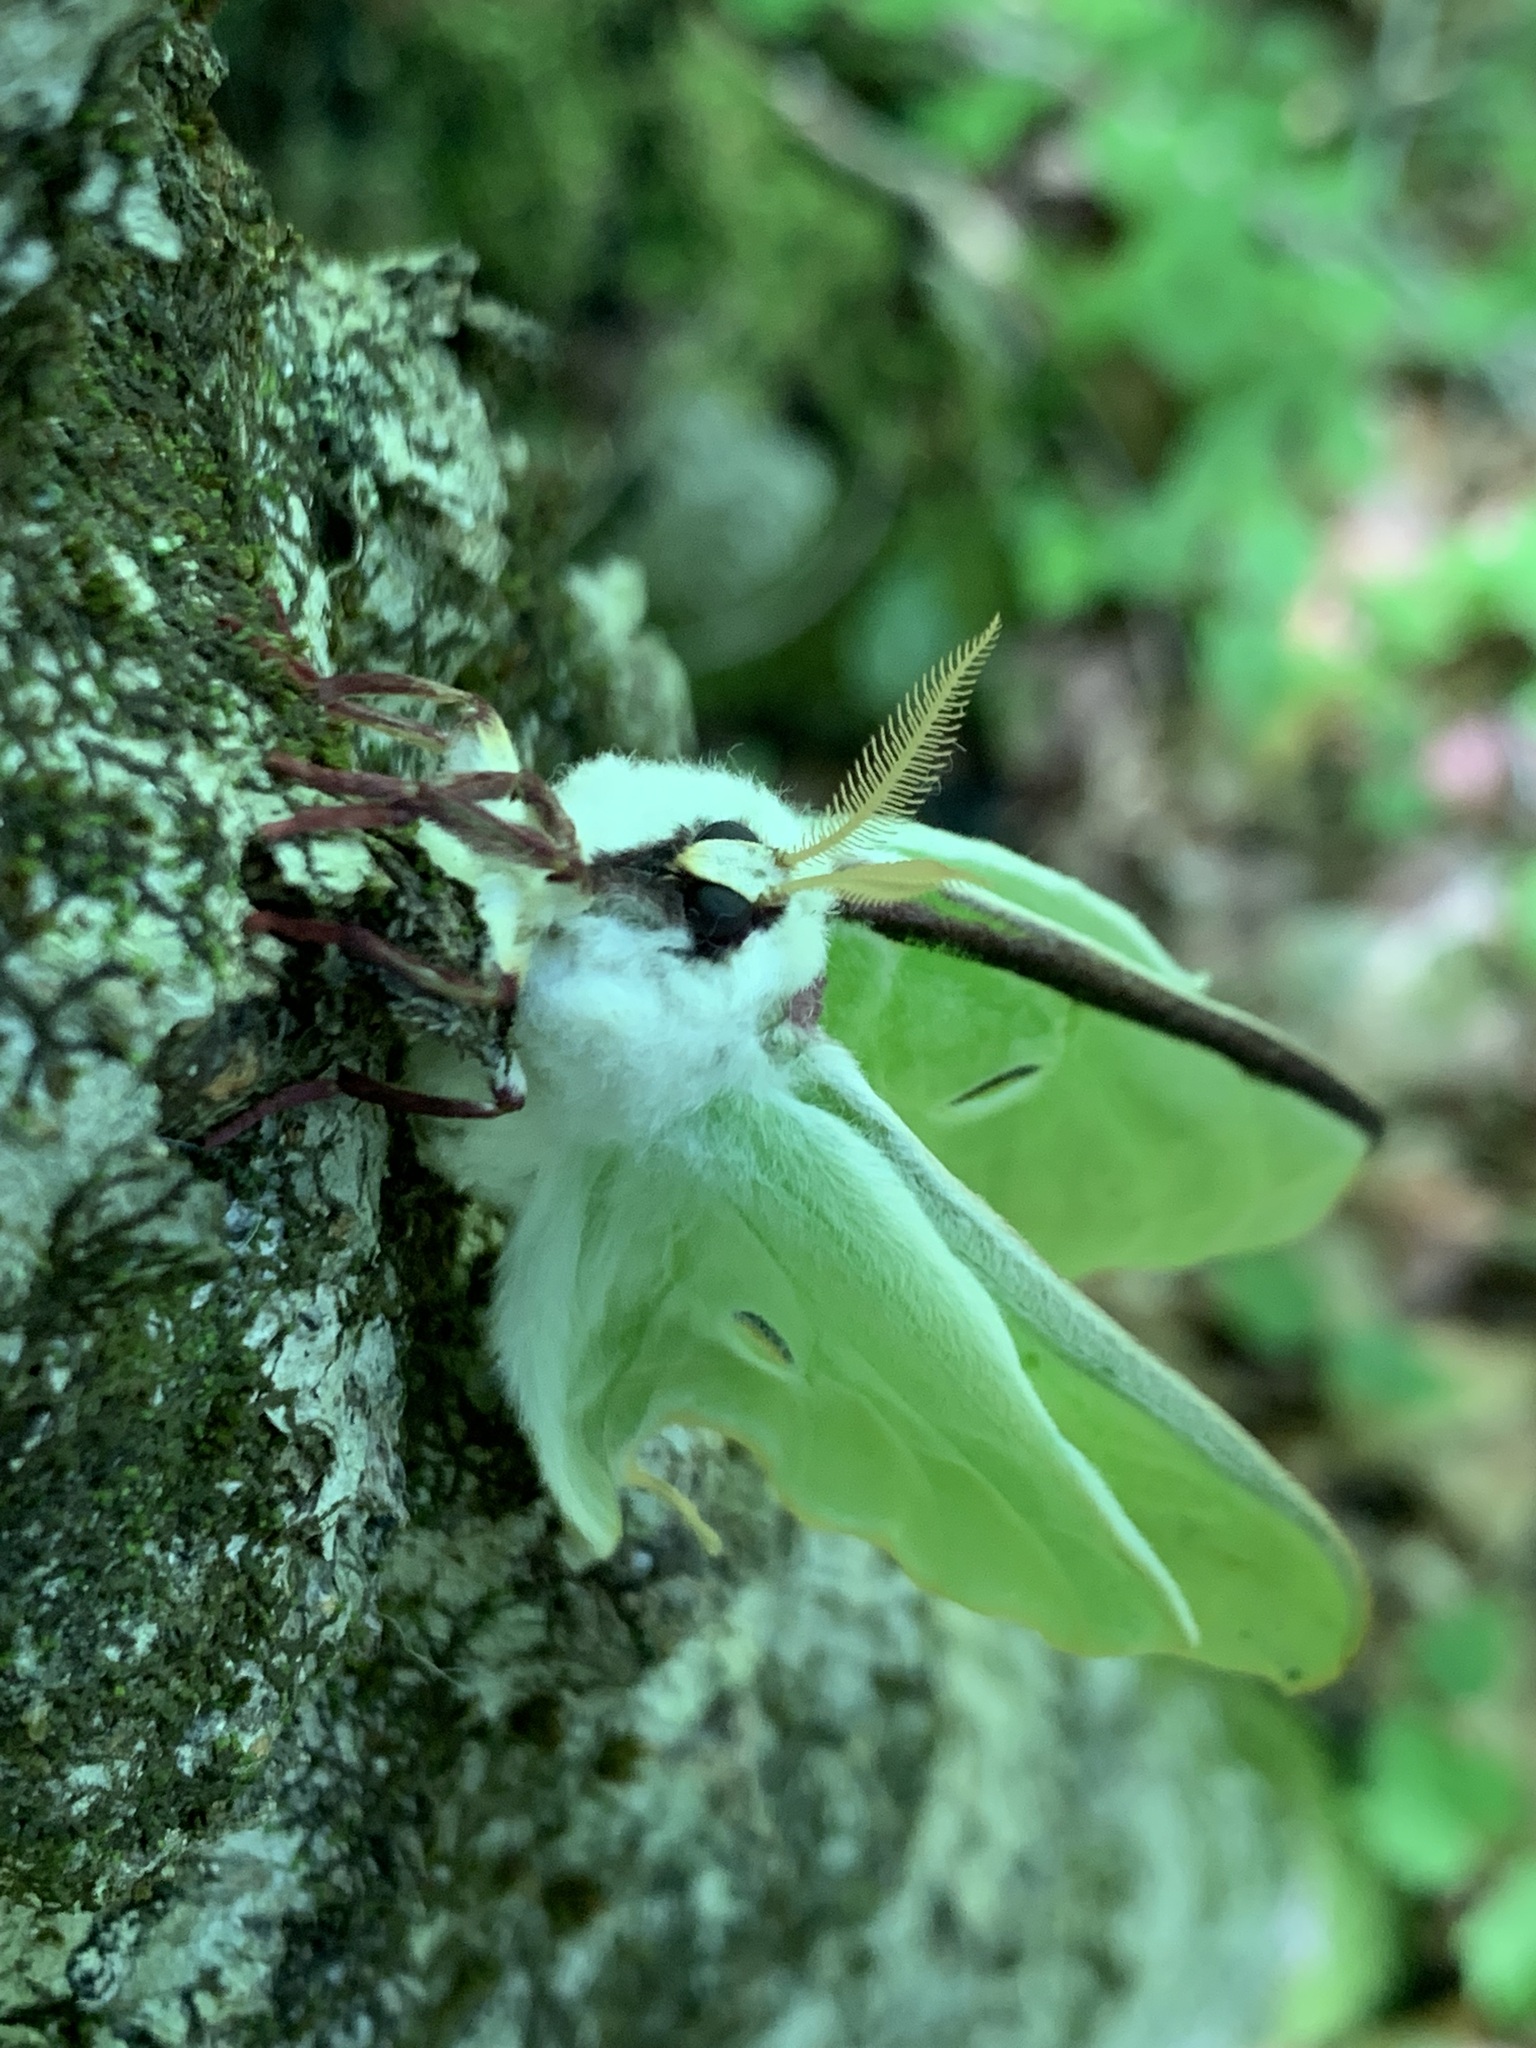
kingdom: Animalia
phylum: Arthropoda
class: Insecta
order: Lepidoptera
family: Saturniidae
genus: Actias
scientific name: Actias luna
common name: Luna moth
